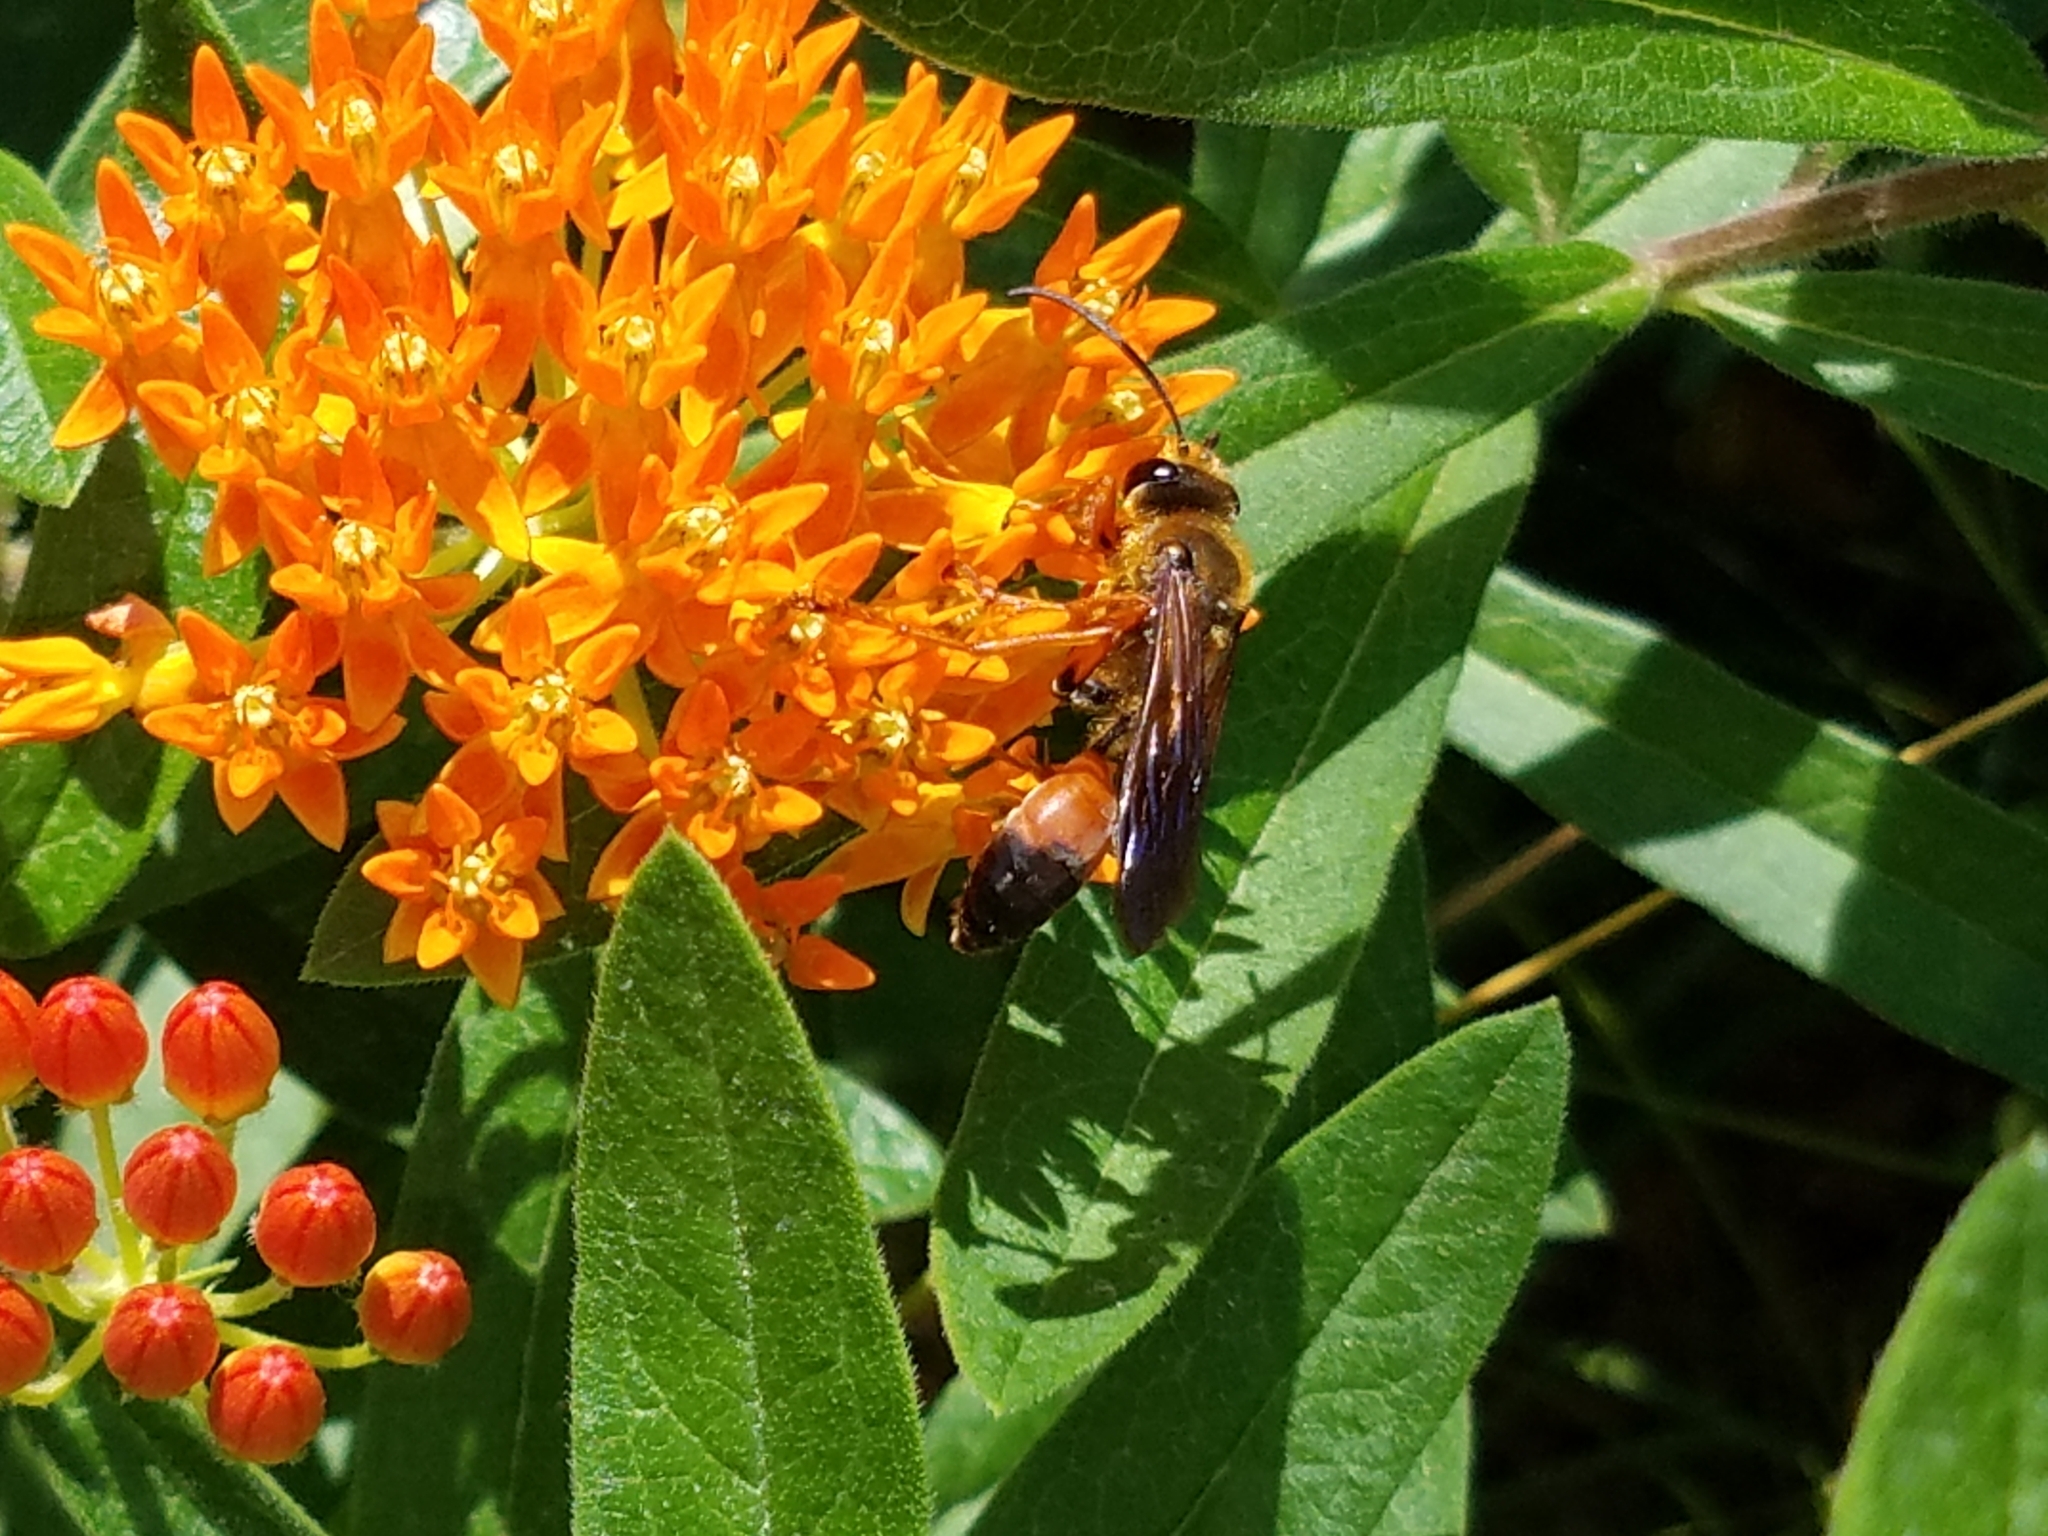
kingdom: Animalia
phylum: Arthropoda
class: Insecta
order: Hymenoptera
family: Sphecidae
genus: Sphex
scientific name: Sphex ichneumoneus
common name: Great golden digger wasp
